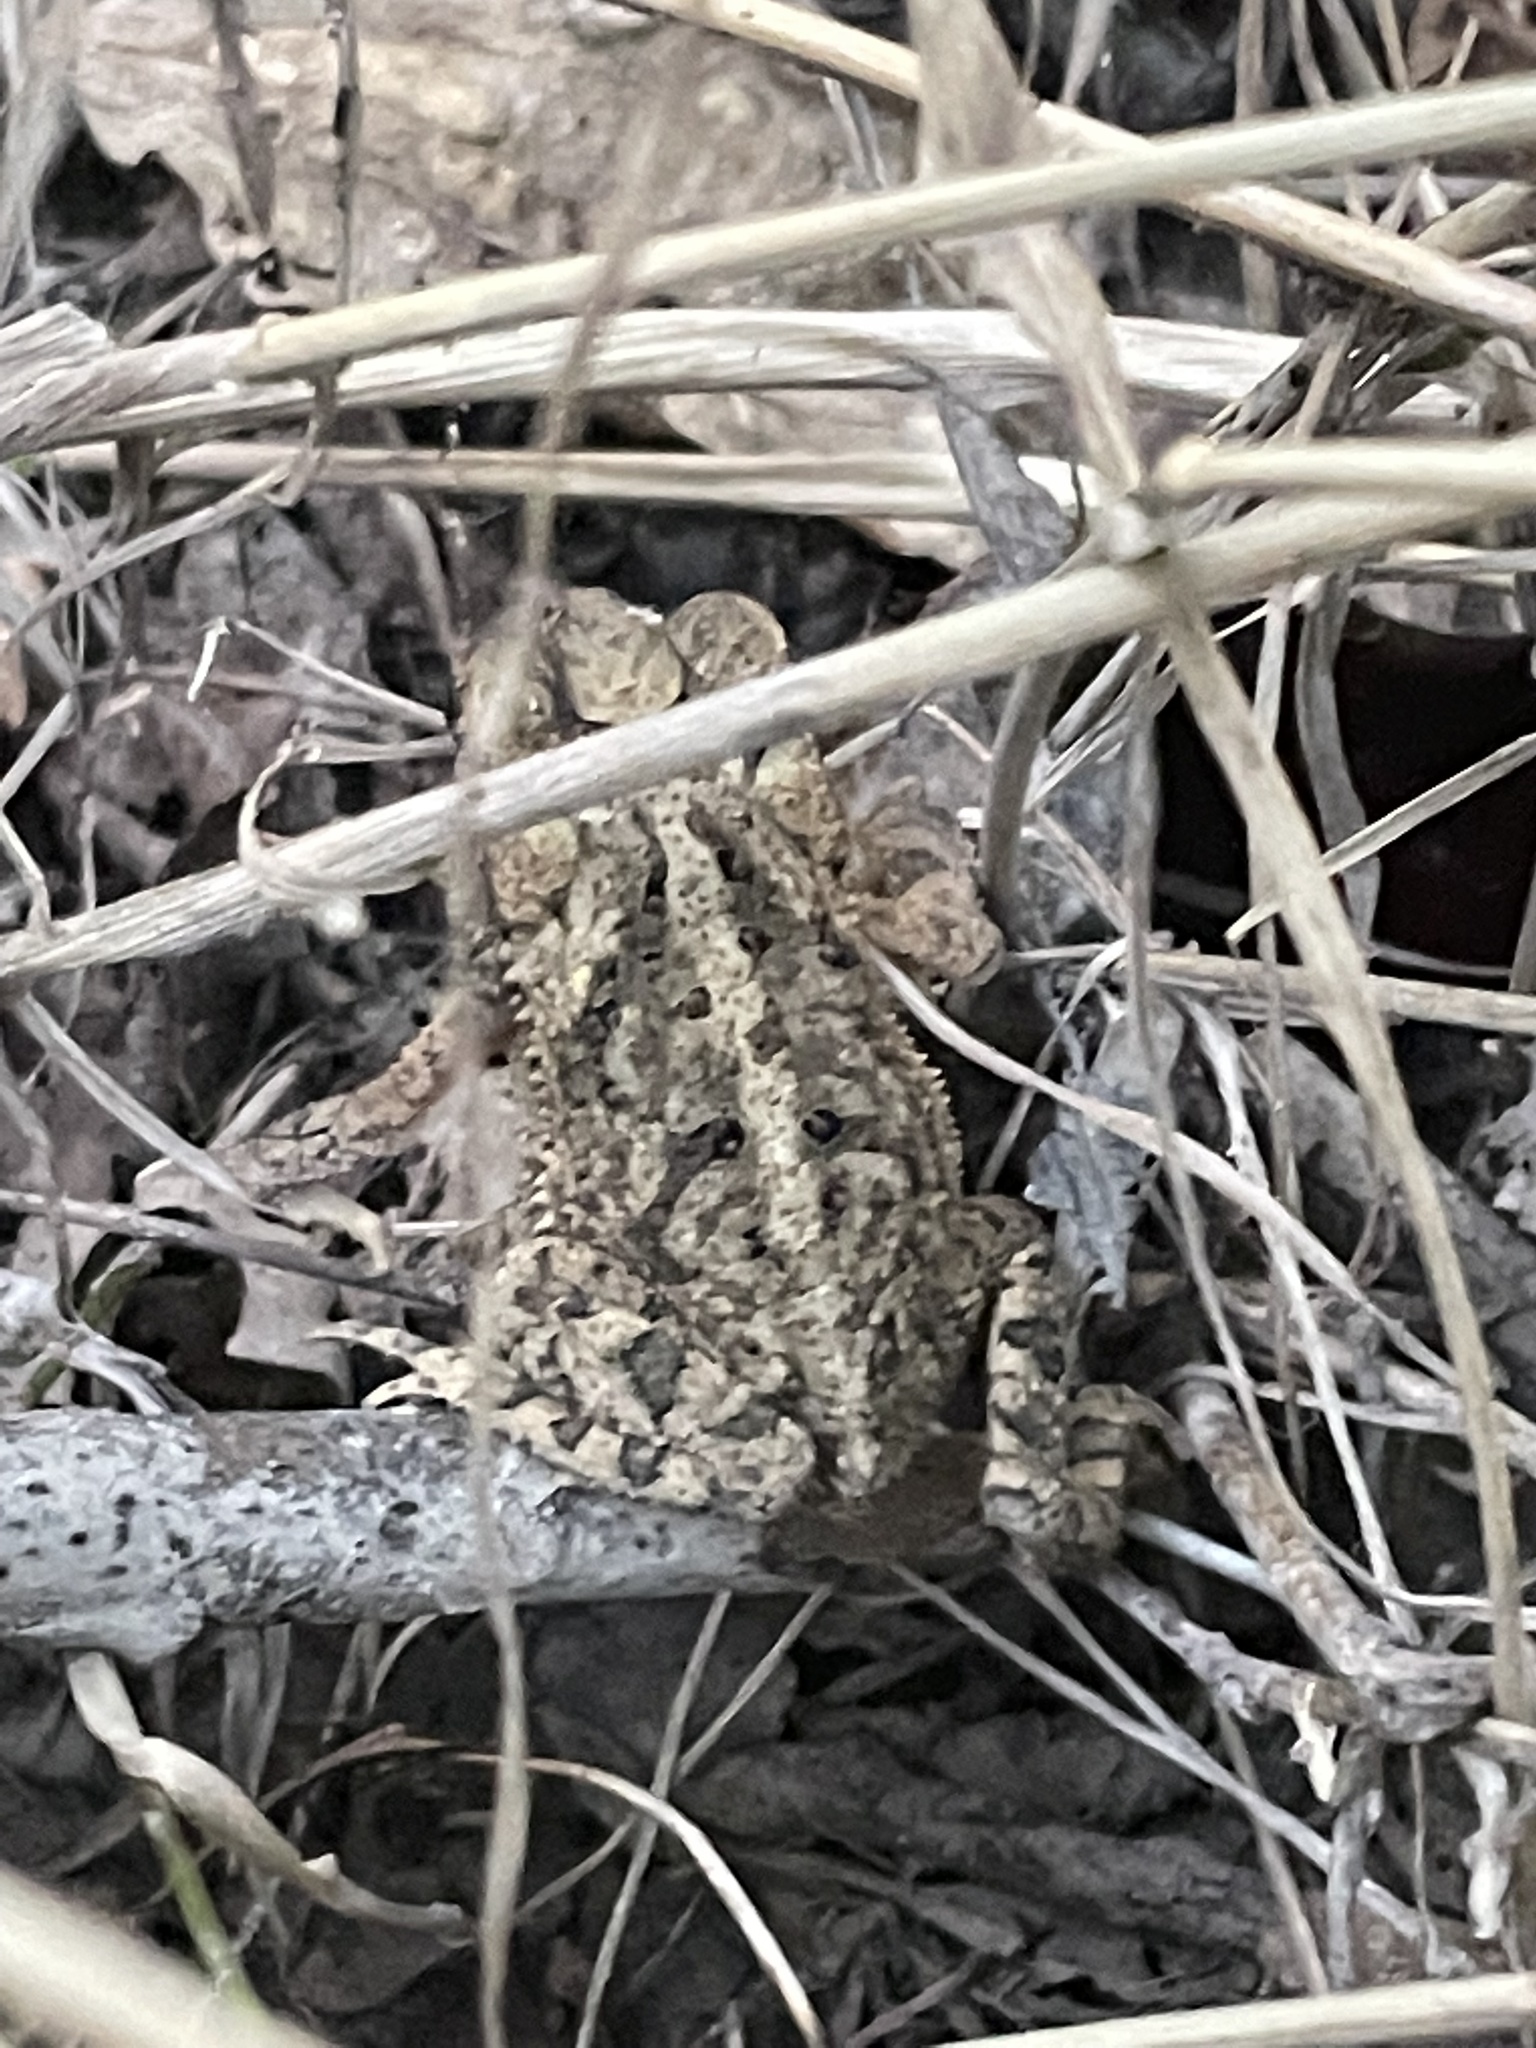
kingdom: Animalia
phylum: Chordata
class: Amphibia
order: Anura
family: Bufonidae
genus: Incilius
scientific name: Incilius nebulifer
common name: Gulf coast toad
